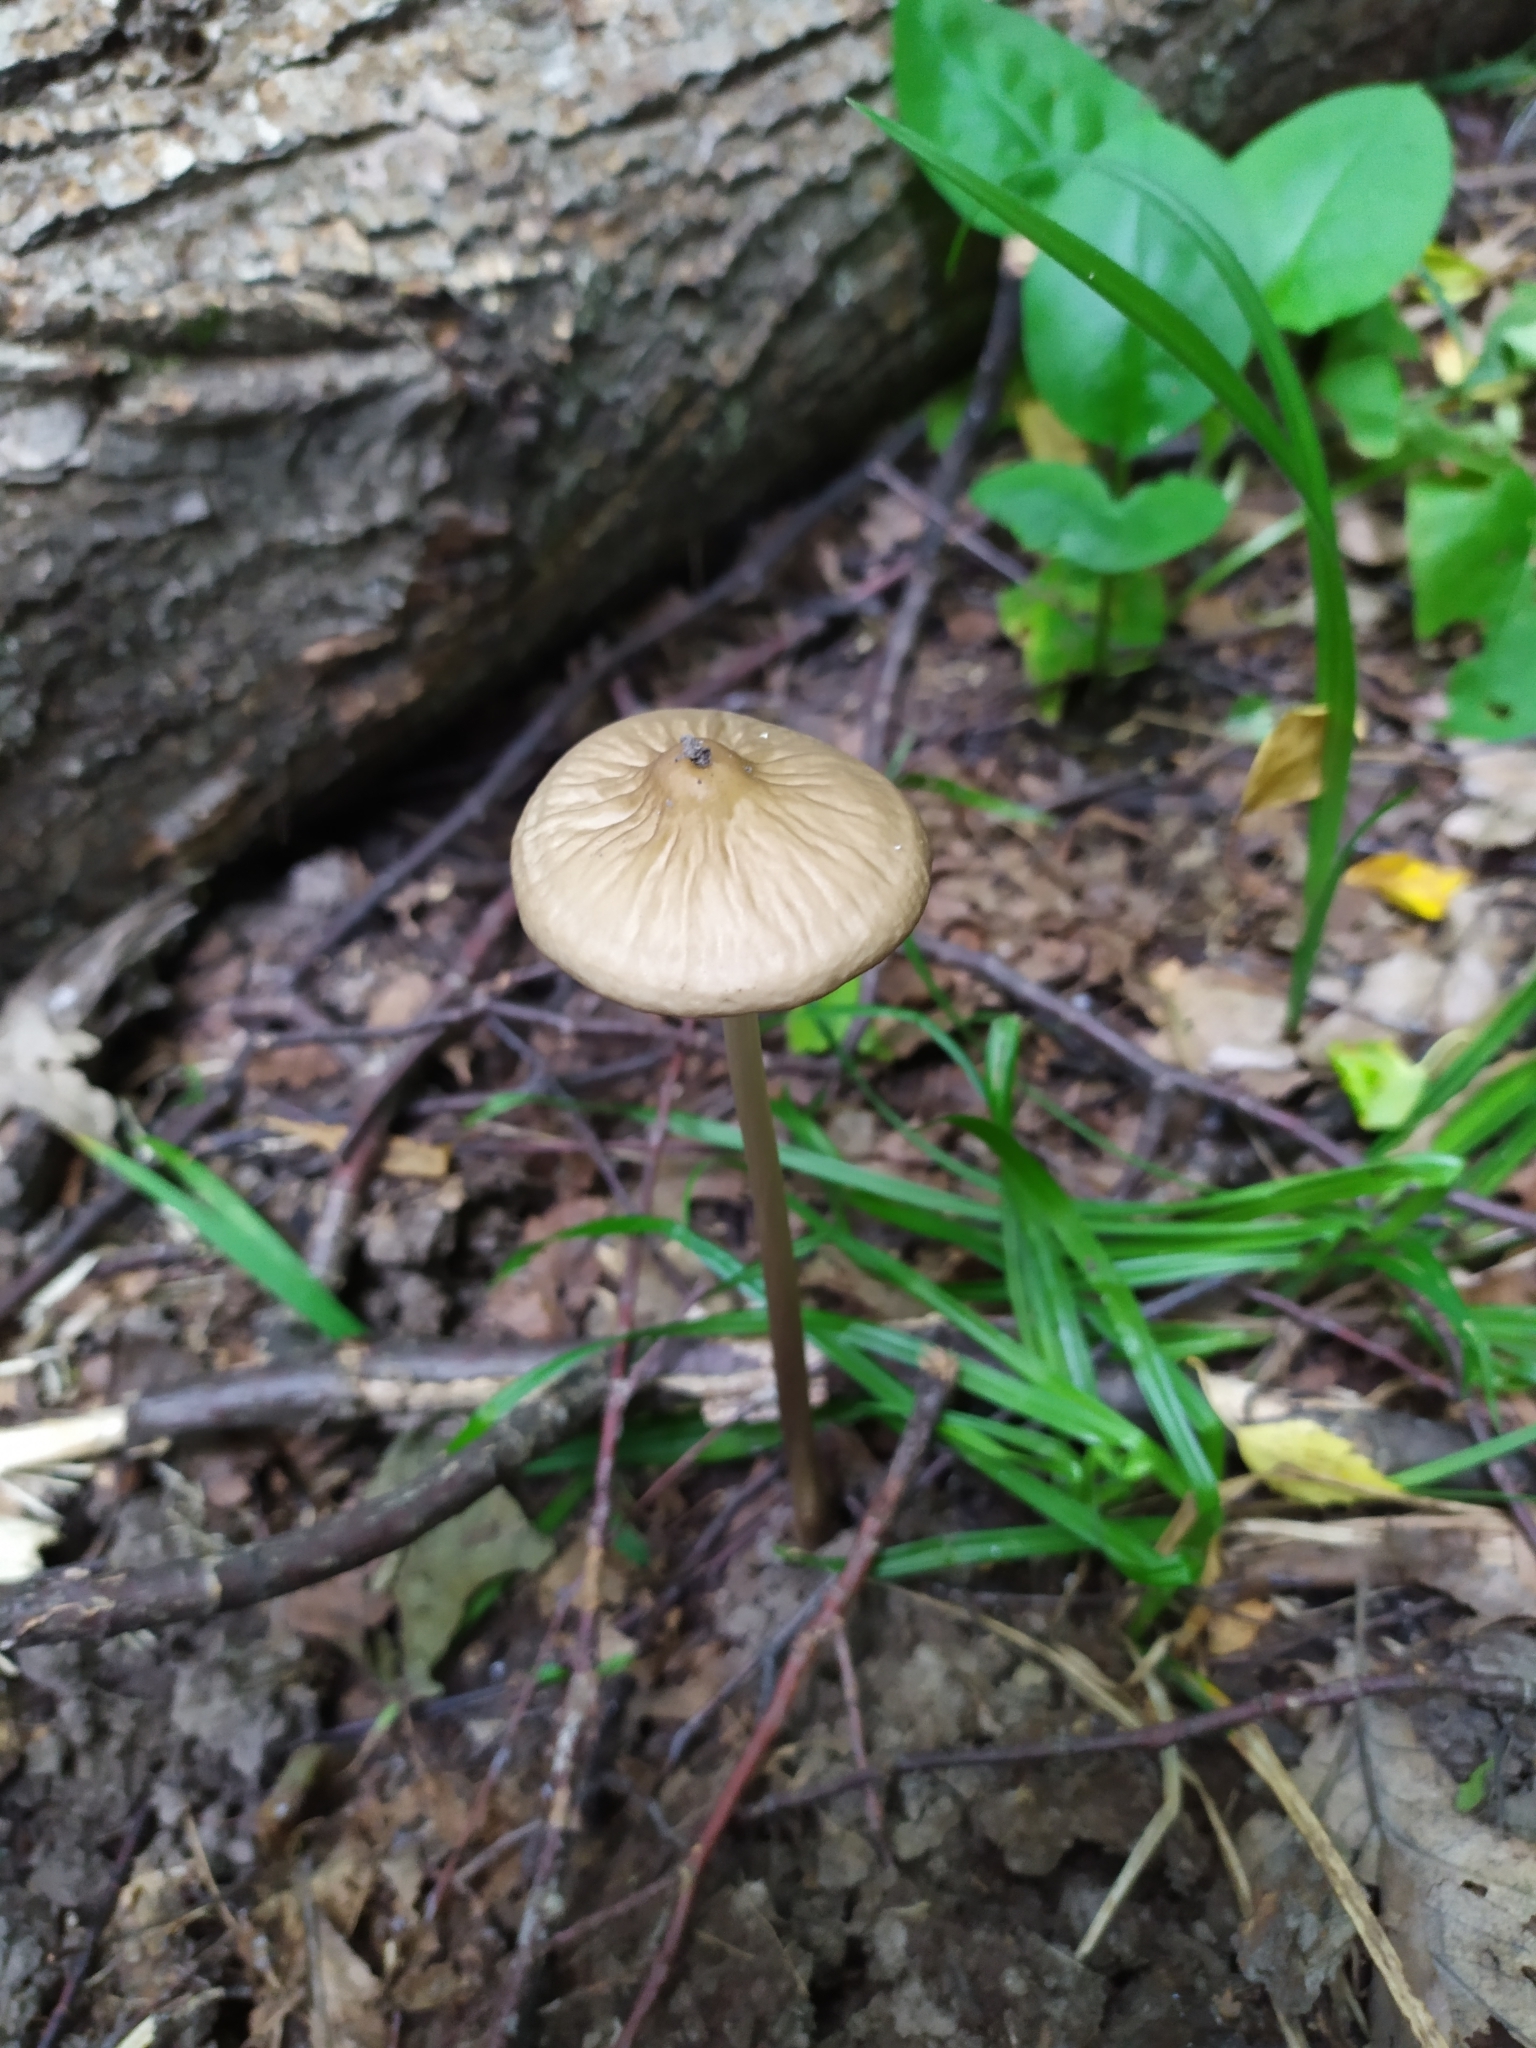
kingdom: Fungi
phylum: Basidiomycota
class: Agaricomycetes
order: Agaricales
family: Physalacriaceae
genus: Hymenopellis
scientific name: Hymenopellis radicata
